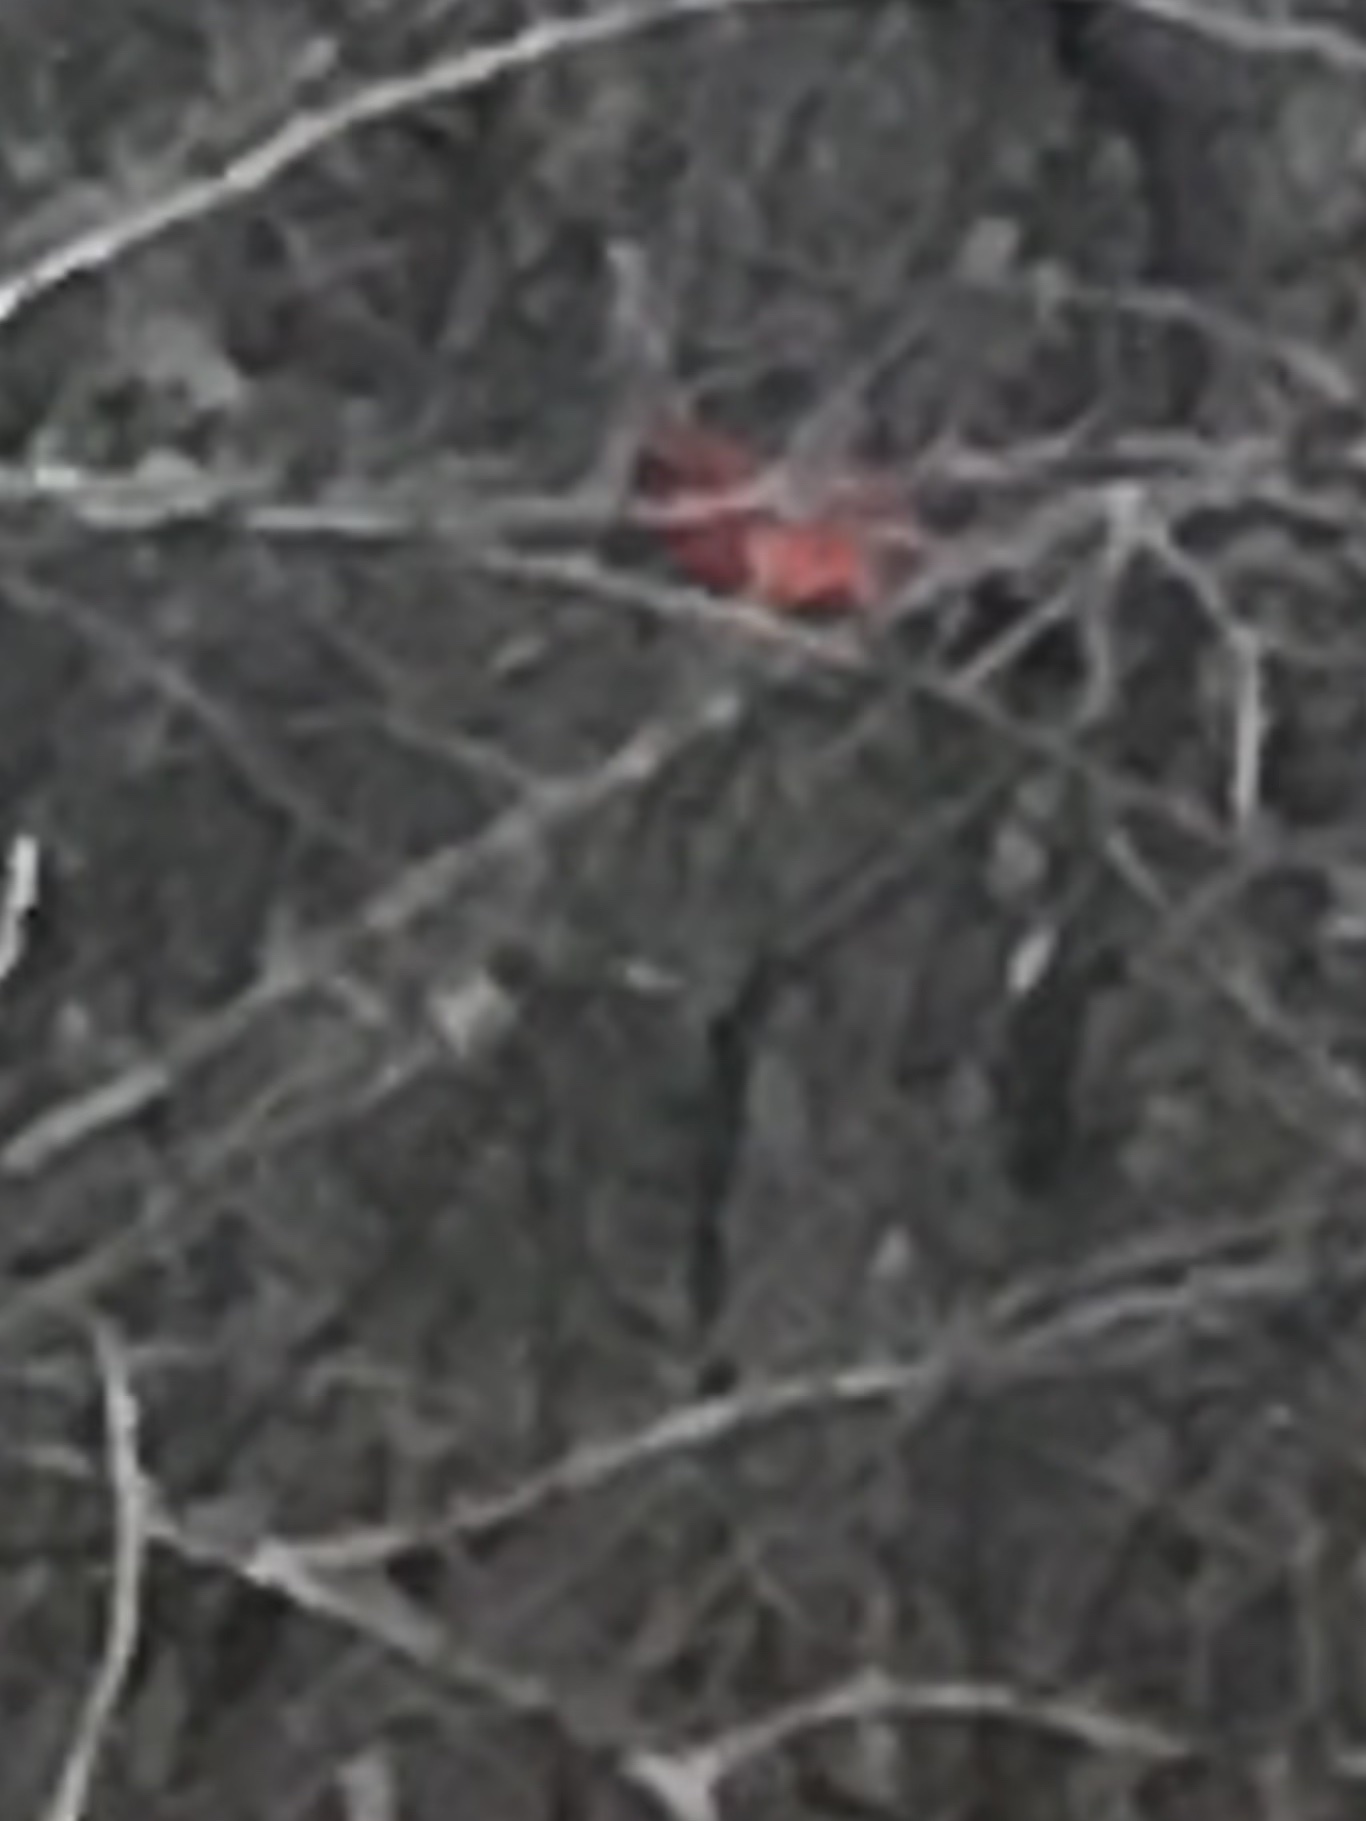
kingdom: Animalia
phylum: Chordata
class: Aves
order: Passeriformes
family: Cardinalidae
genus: Cardinalis
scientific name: Cardinalis cardinalis
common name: Northern cardinal
